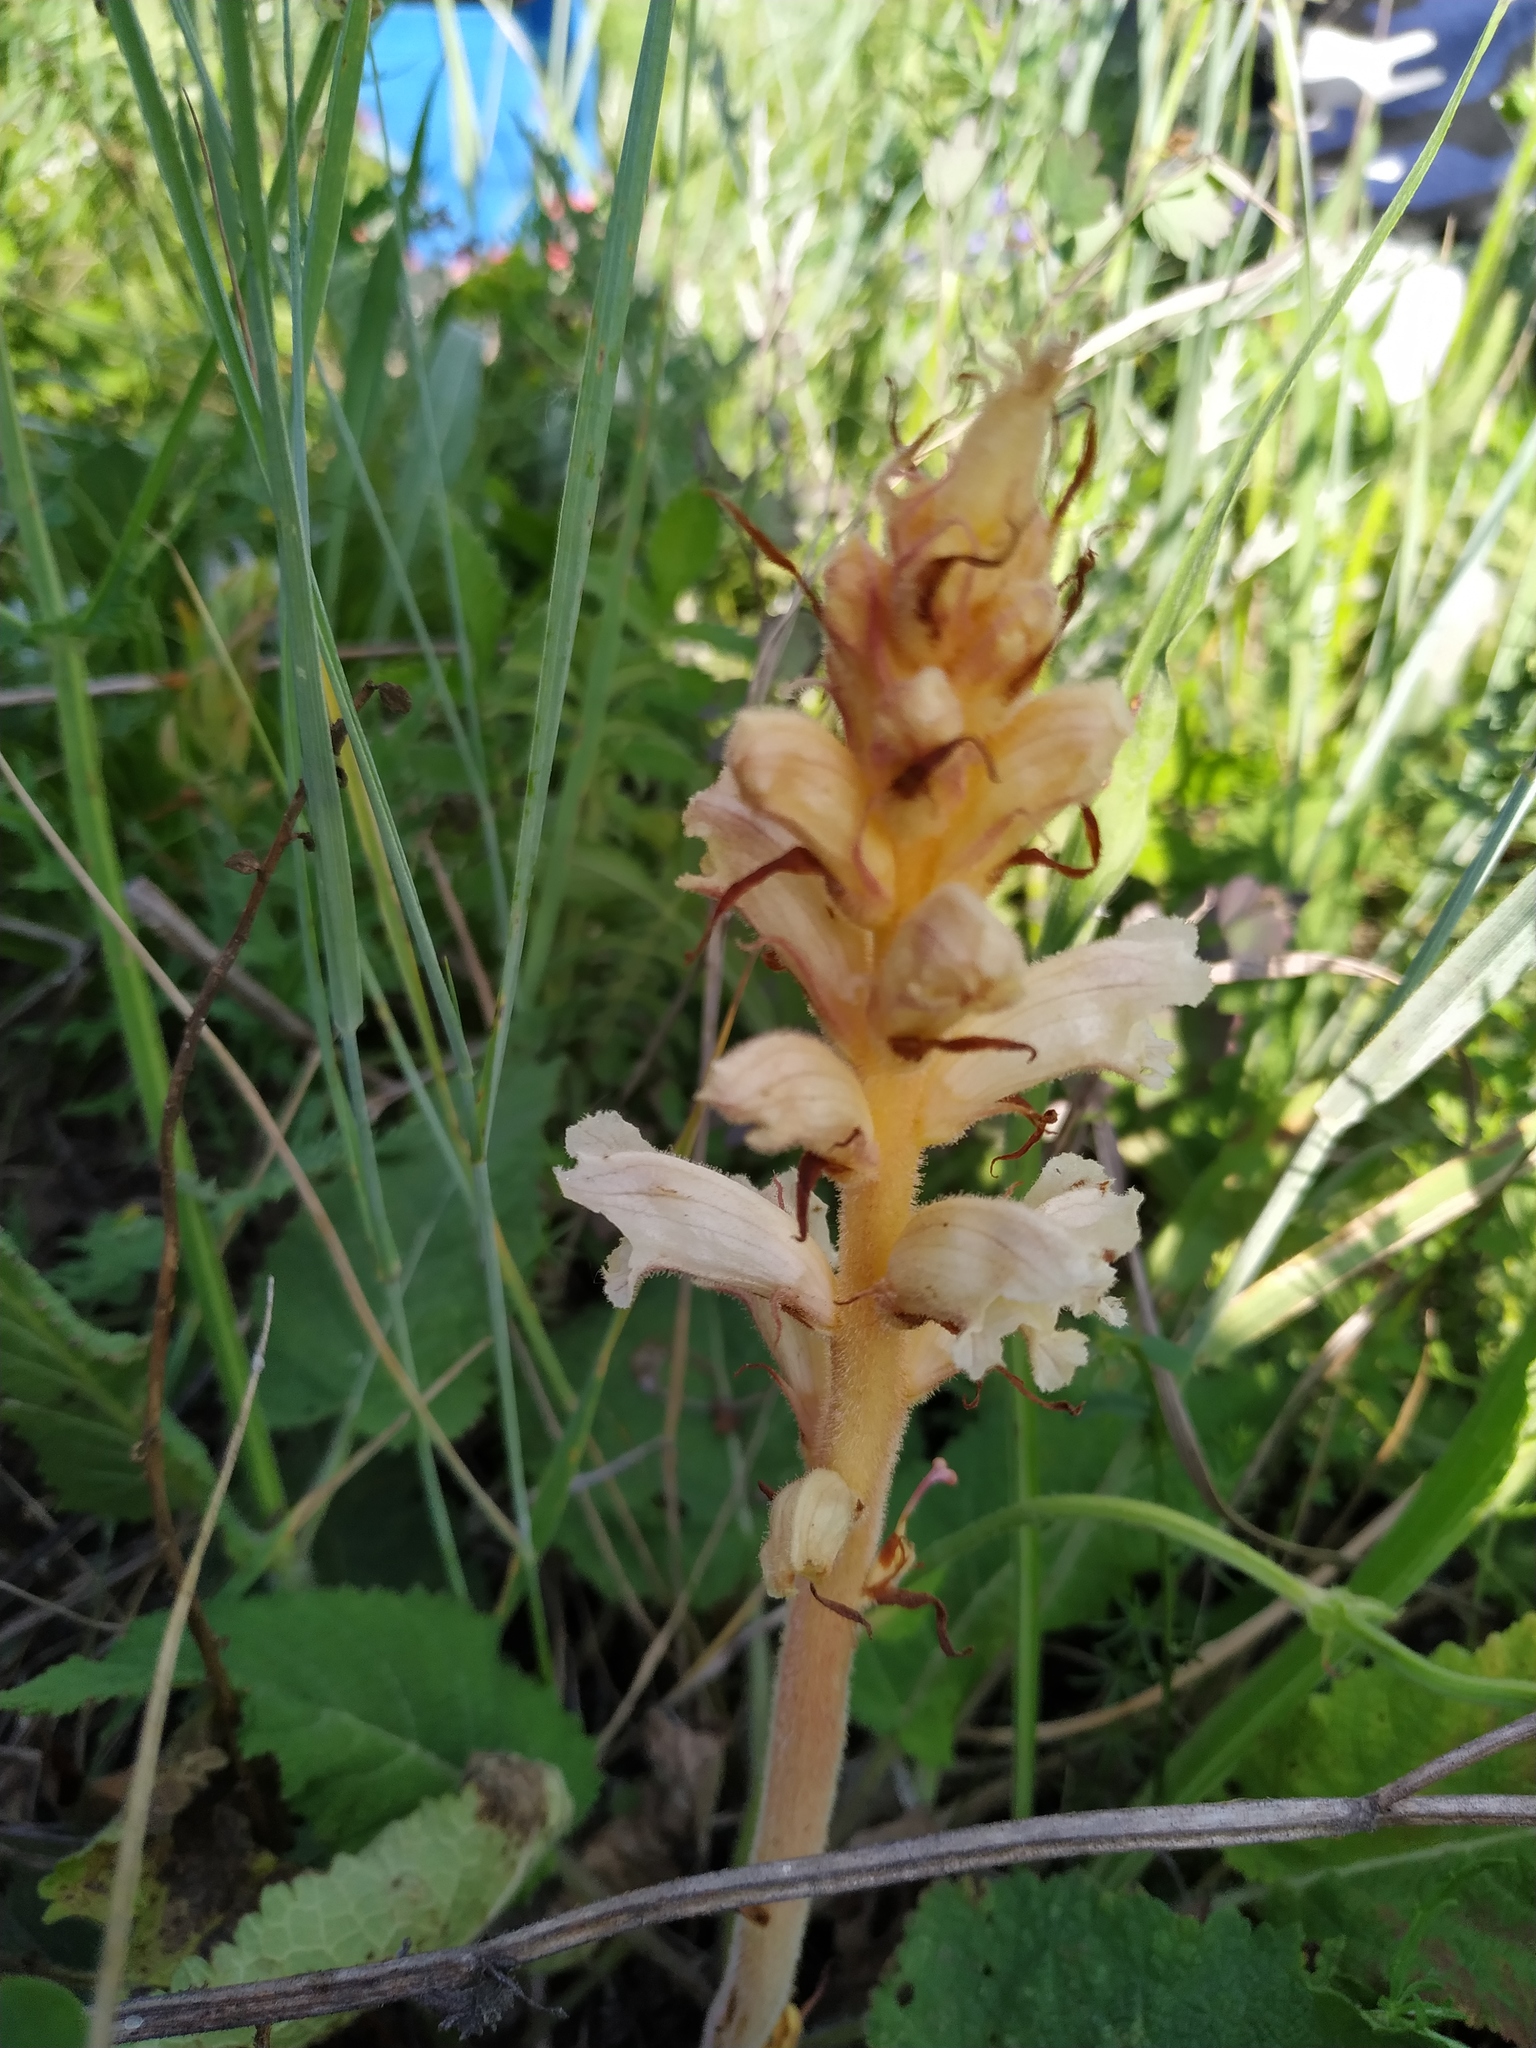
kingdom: Plantae
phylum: Tracheophyta
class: Magnoliopsida
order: Lamiales
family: Orobanchaceae
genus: Orobanche
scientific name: Orobanche alba
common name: Thyme broomrape
